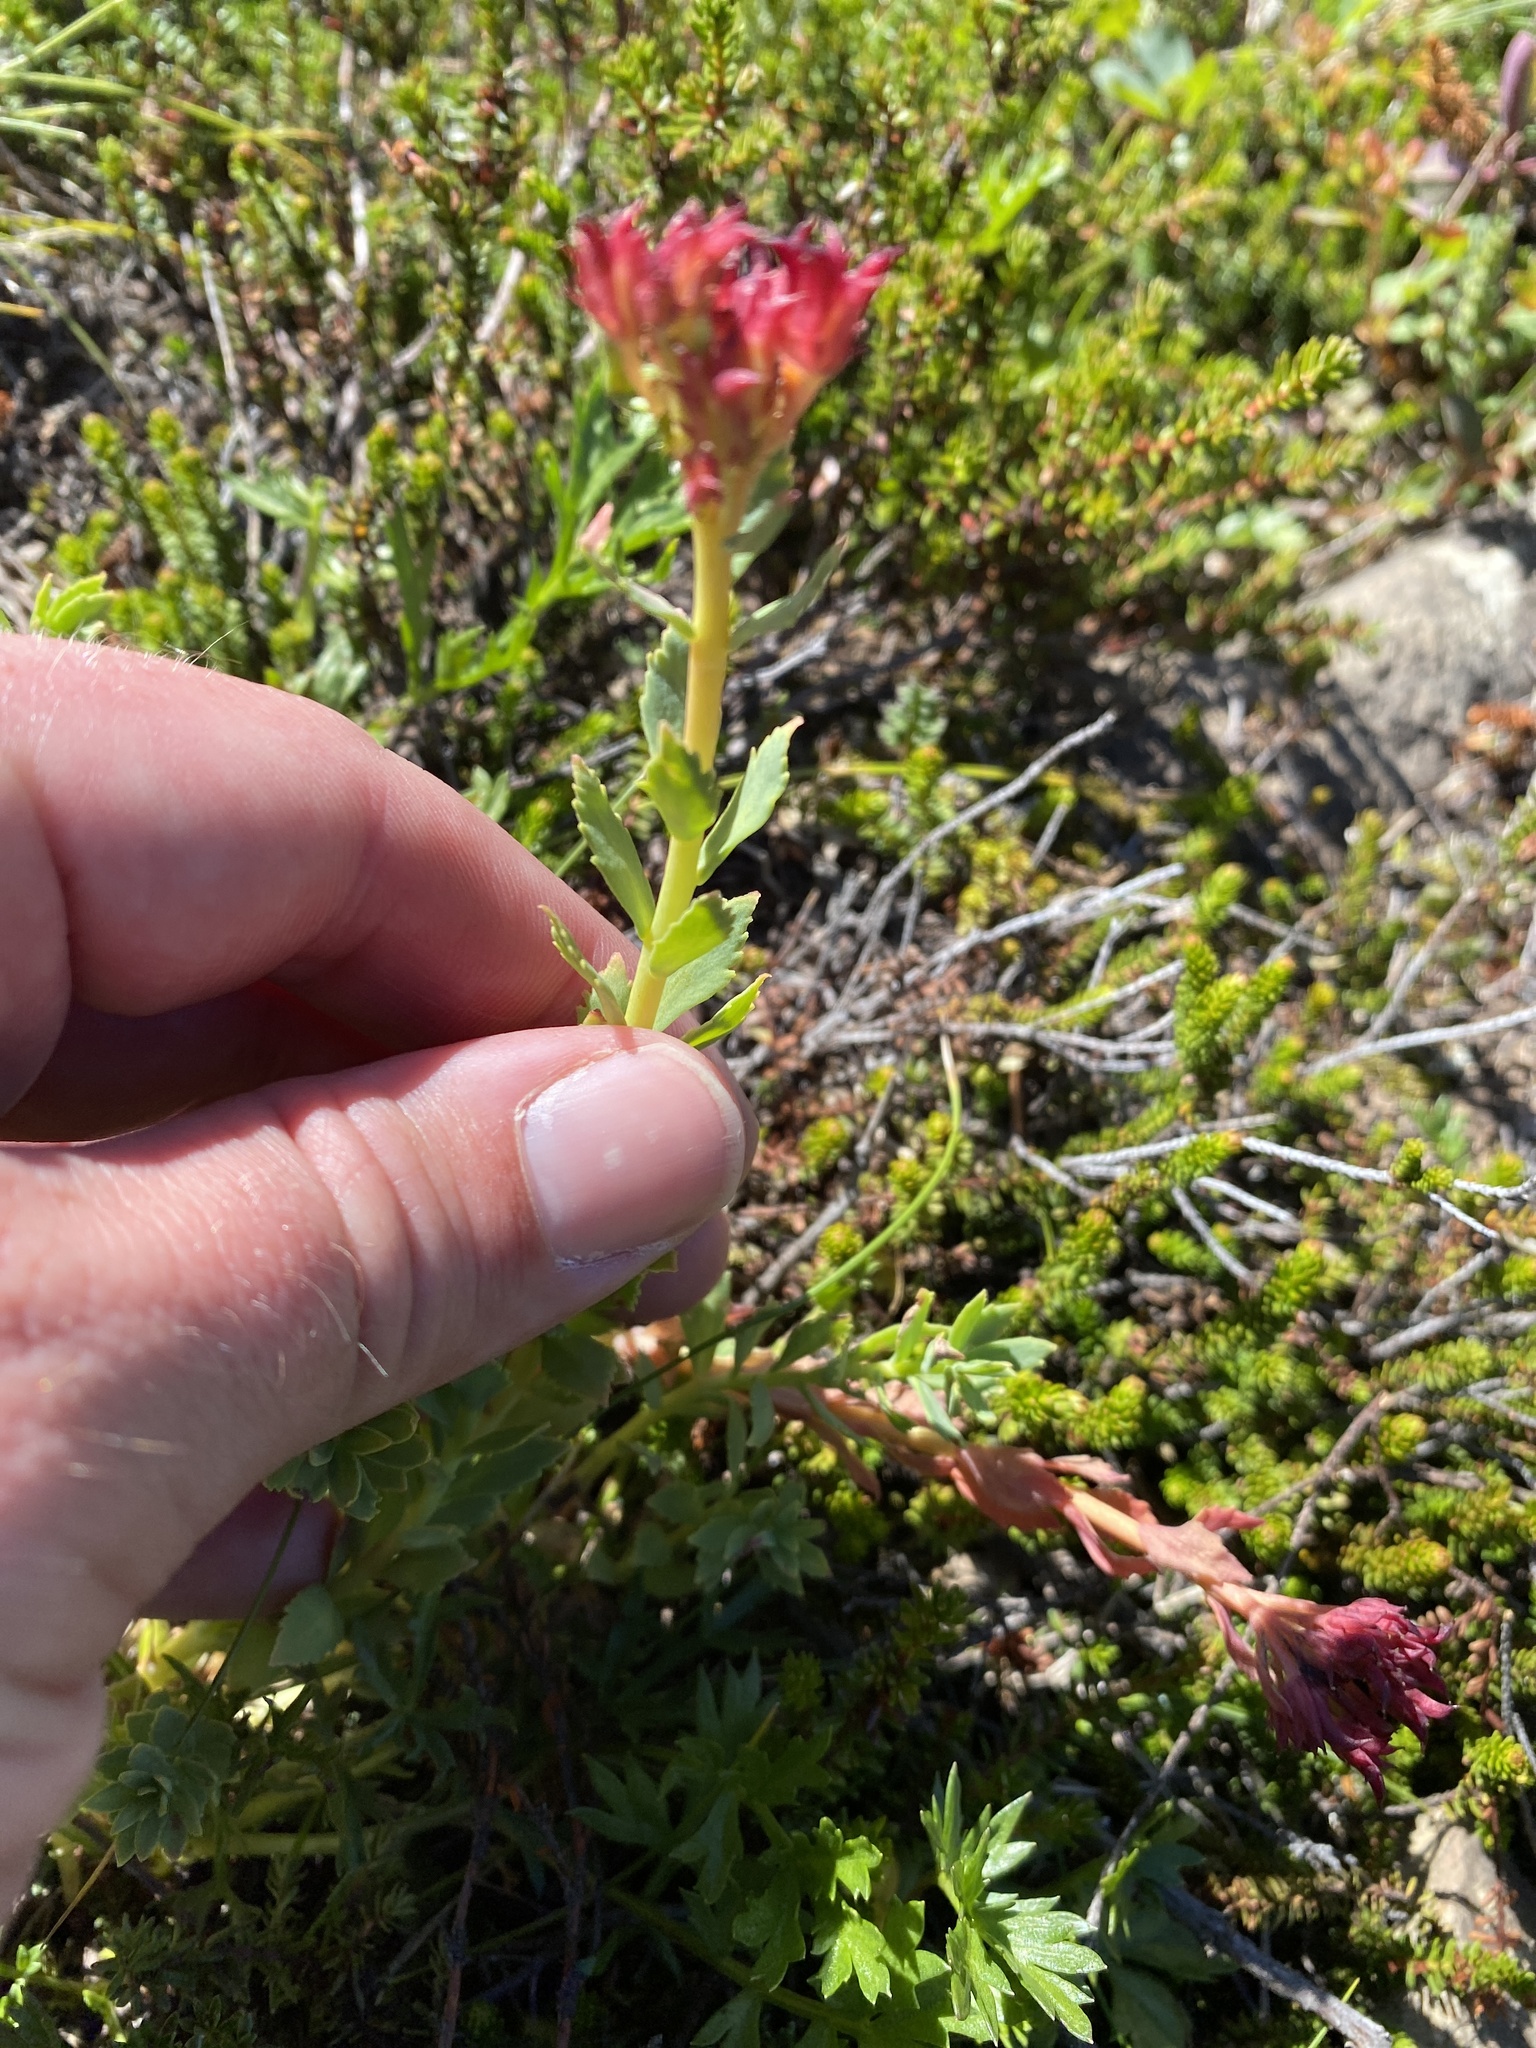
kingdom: Plantae
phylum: Tracheophyta
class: Magnoliopsida
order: Saxifragales
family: Crassulaceae
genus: Rhodiola
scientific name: Rhodiola integrifolia
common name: Western roseroot
